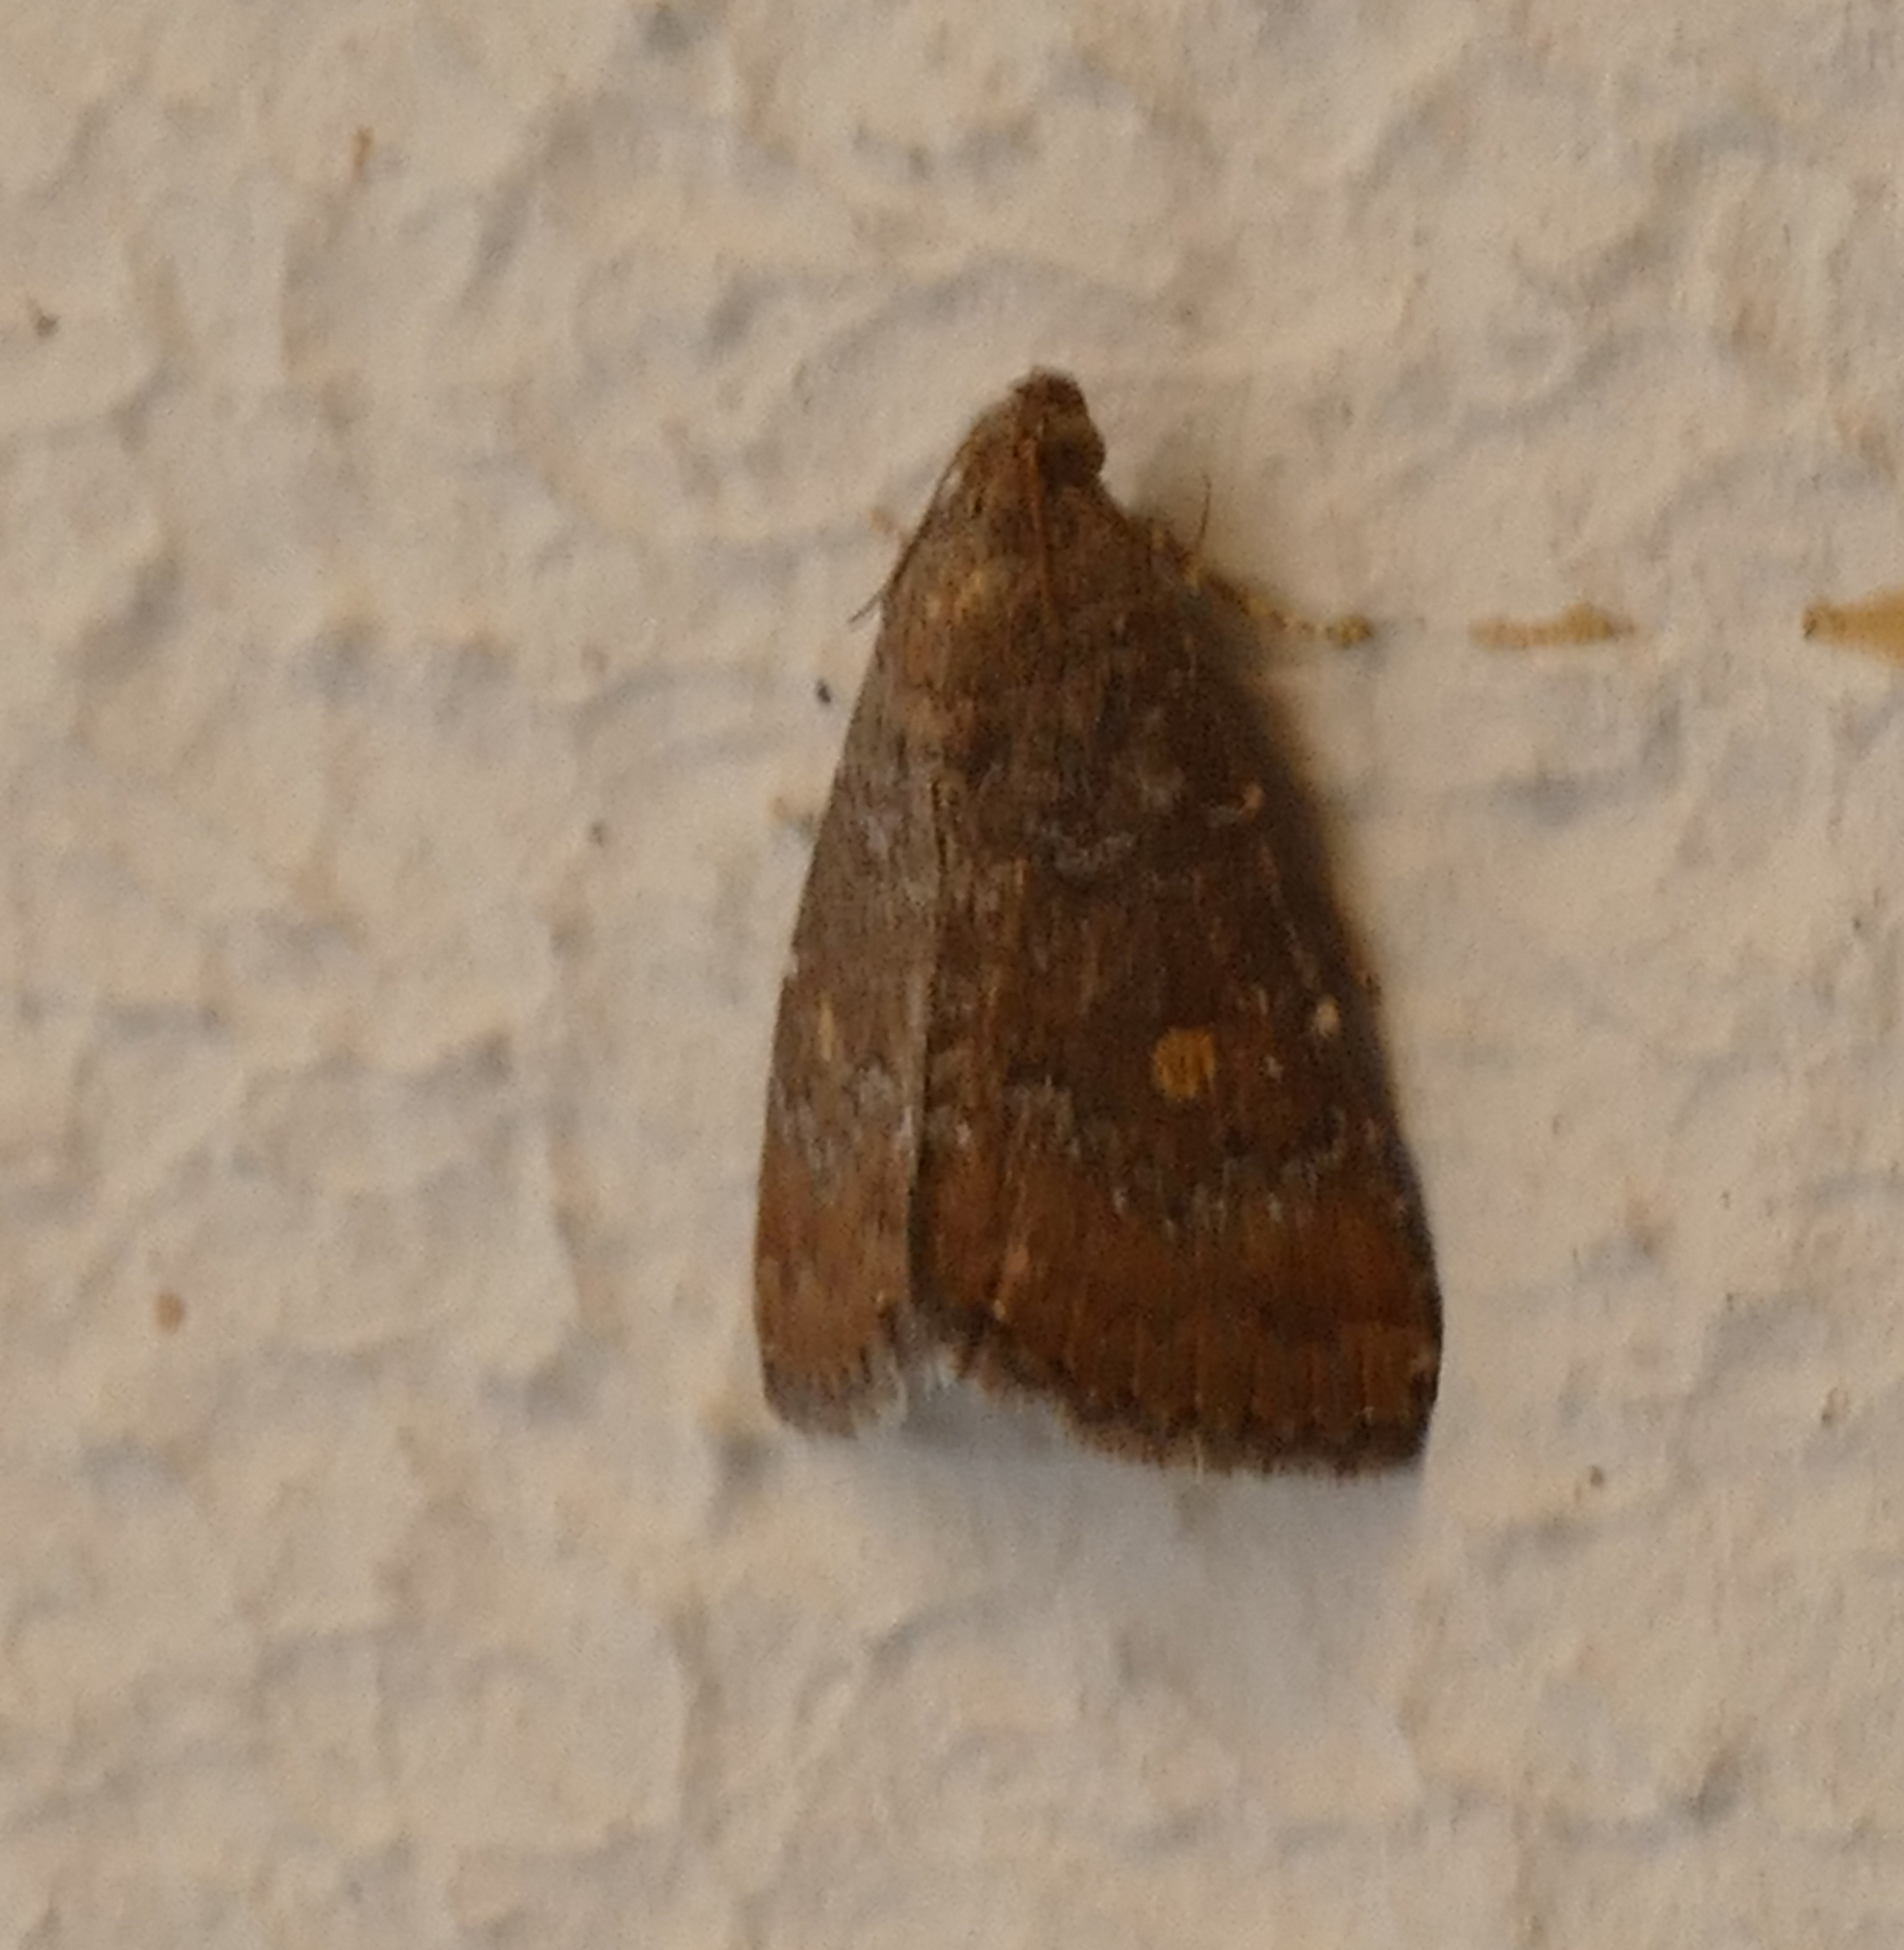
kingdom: Animalia
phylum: Arthropoda
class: Insecta
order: Lepidoptera
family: Noctuidae
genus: Amyna
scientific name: Amyna stricta
